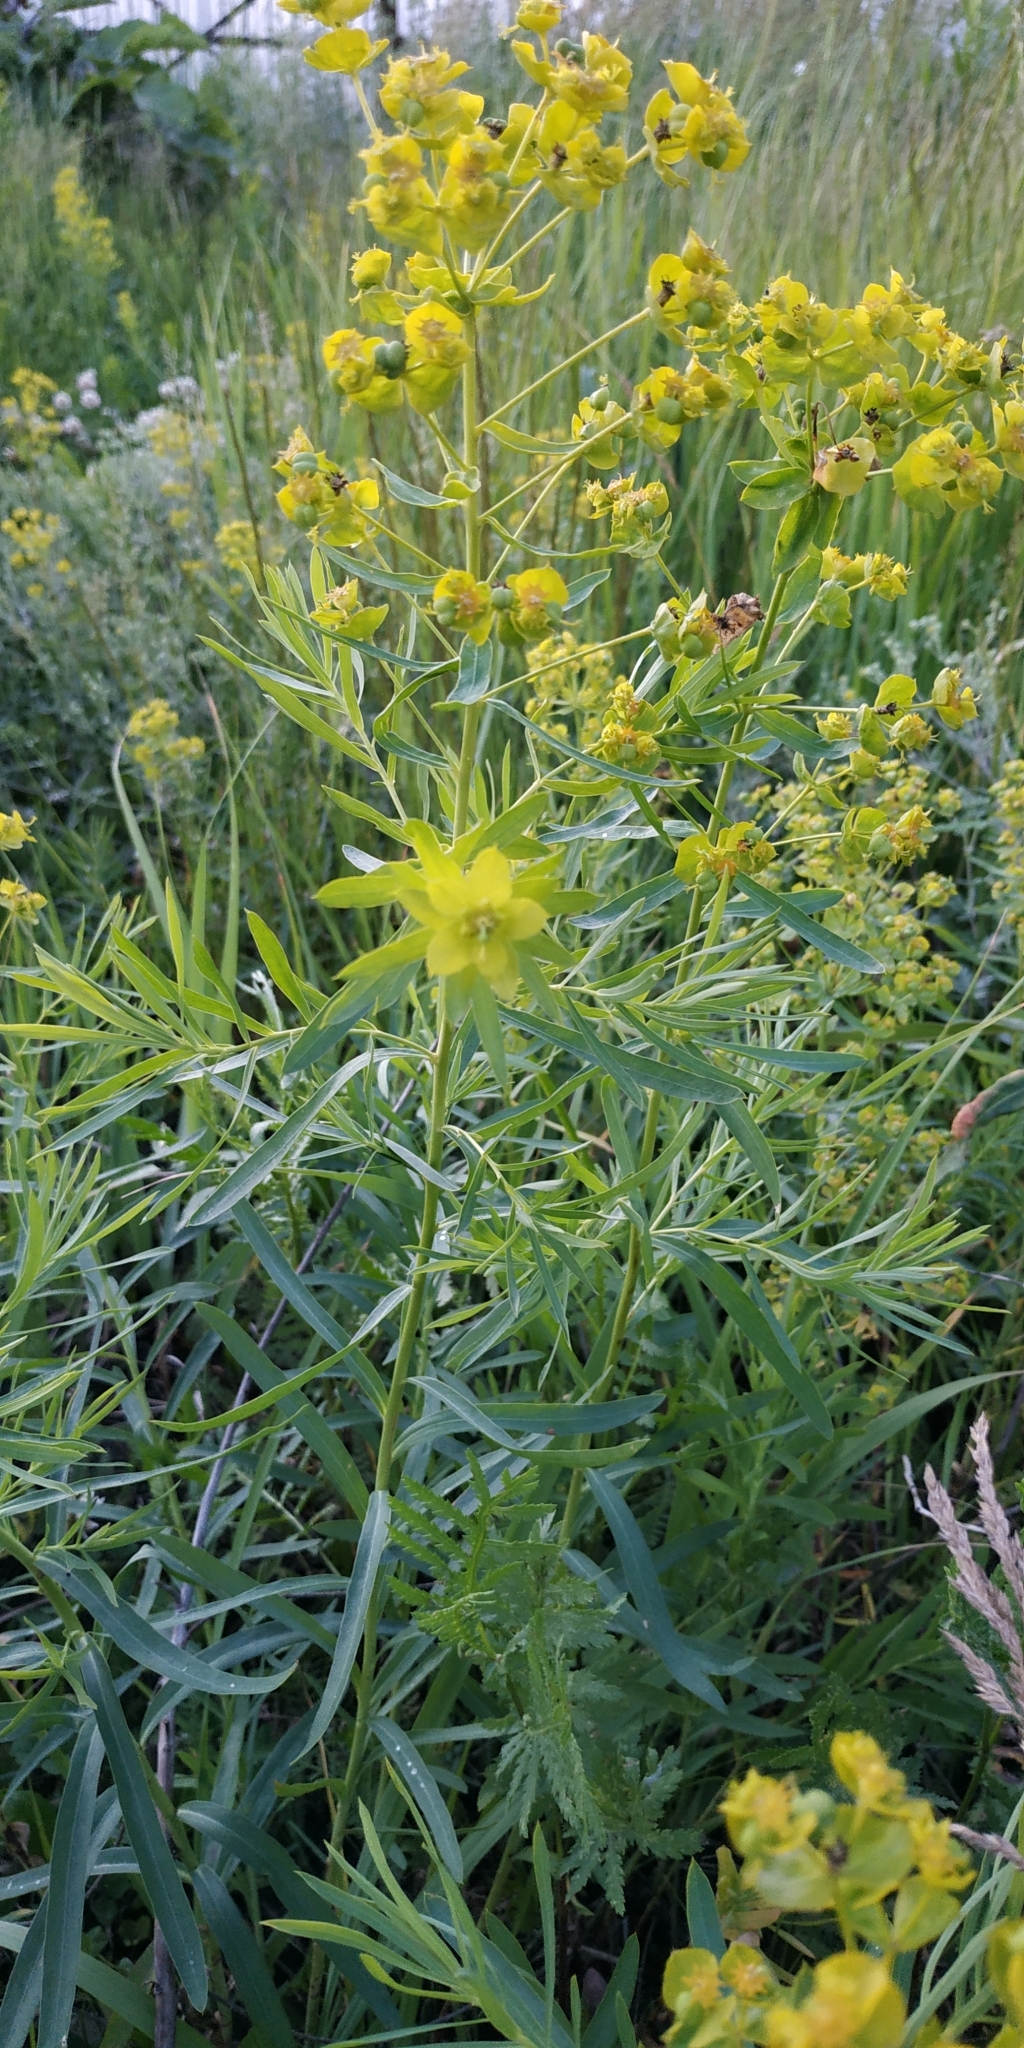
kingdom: Plantae
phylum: Tracheophyta
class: Magnoliopsida
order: Malpighiales
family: Euphorbiaceae
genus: Euphorbia
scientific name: Euphorbia virgata
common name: Leafy spurge
